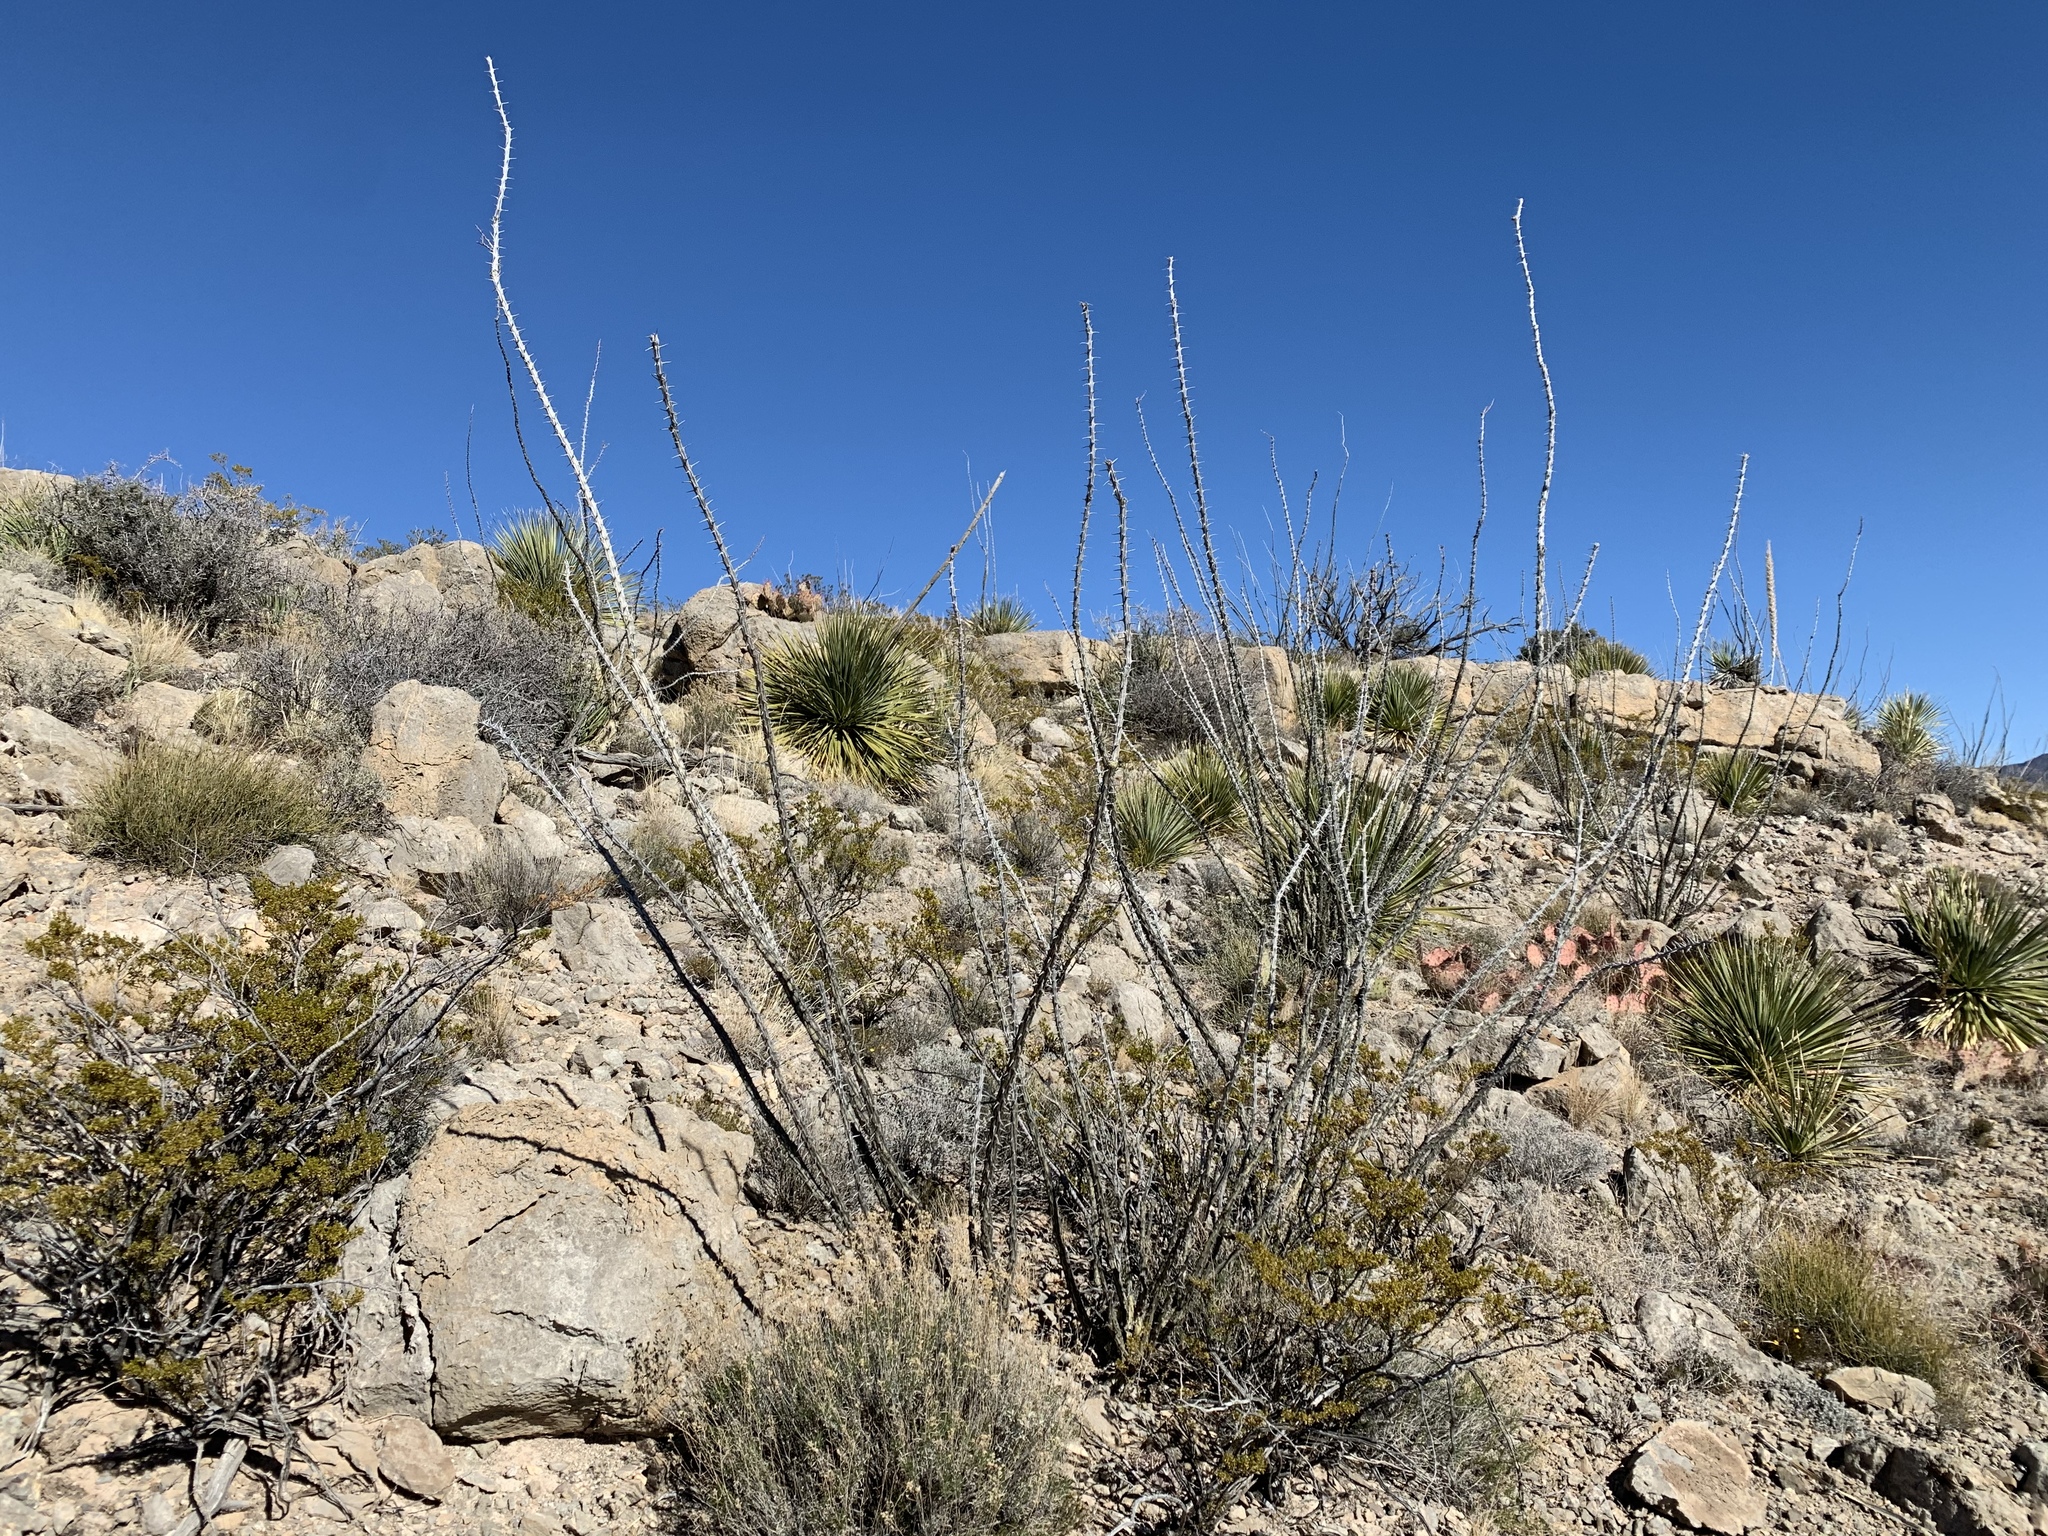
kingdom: Plantae
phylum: Tracheophyta
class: Magnoliopsida
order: Ericales
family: Fouquieriaceae
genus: Fouquieria
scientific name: Fouquieria splendens
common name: Vine-cactus
